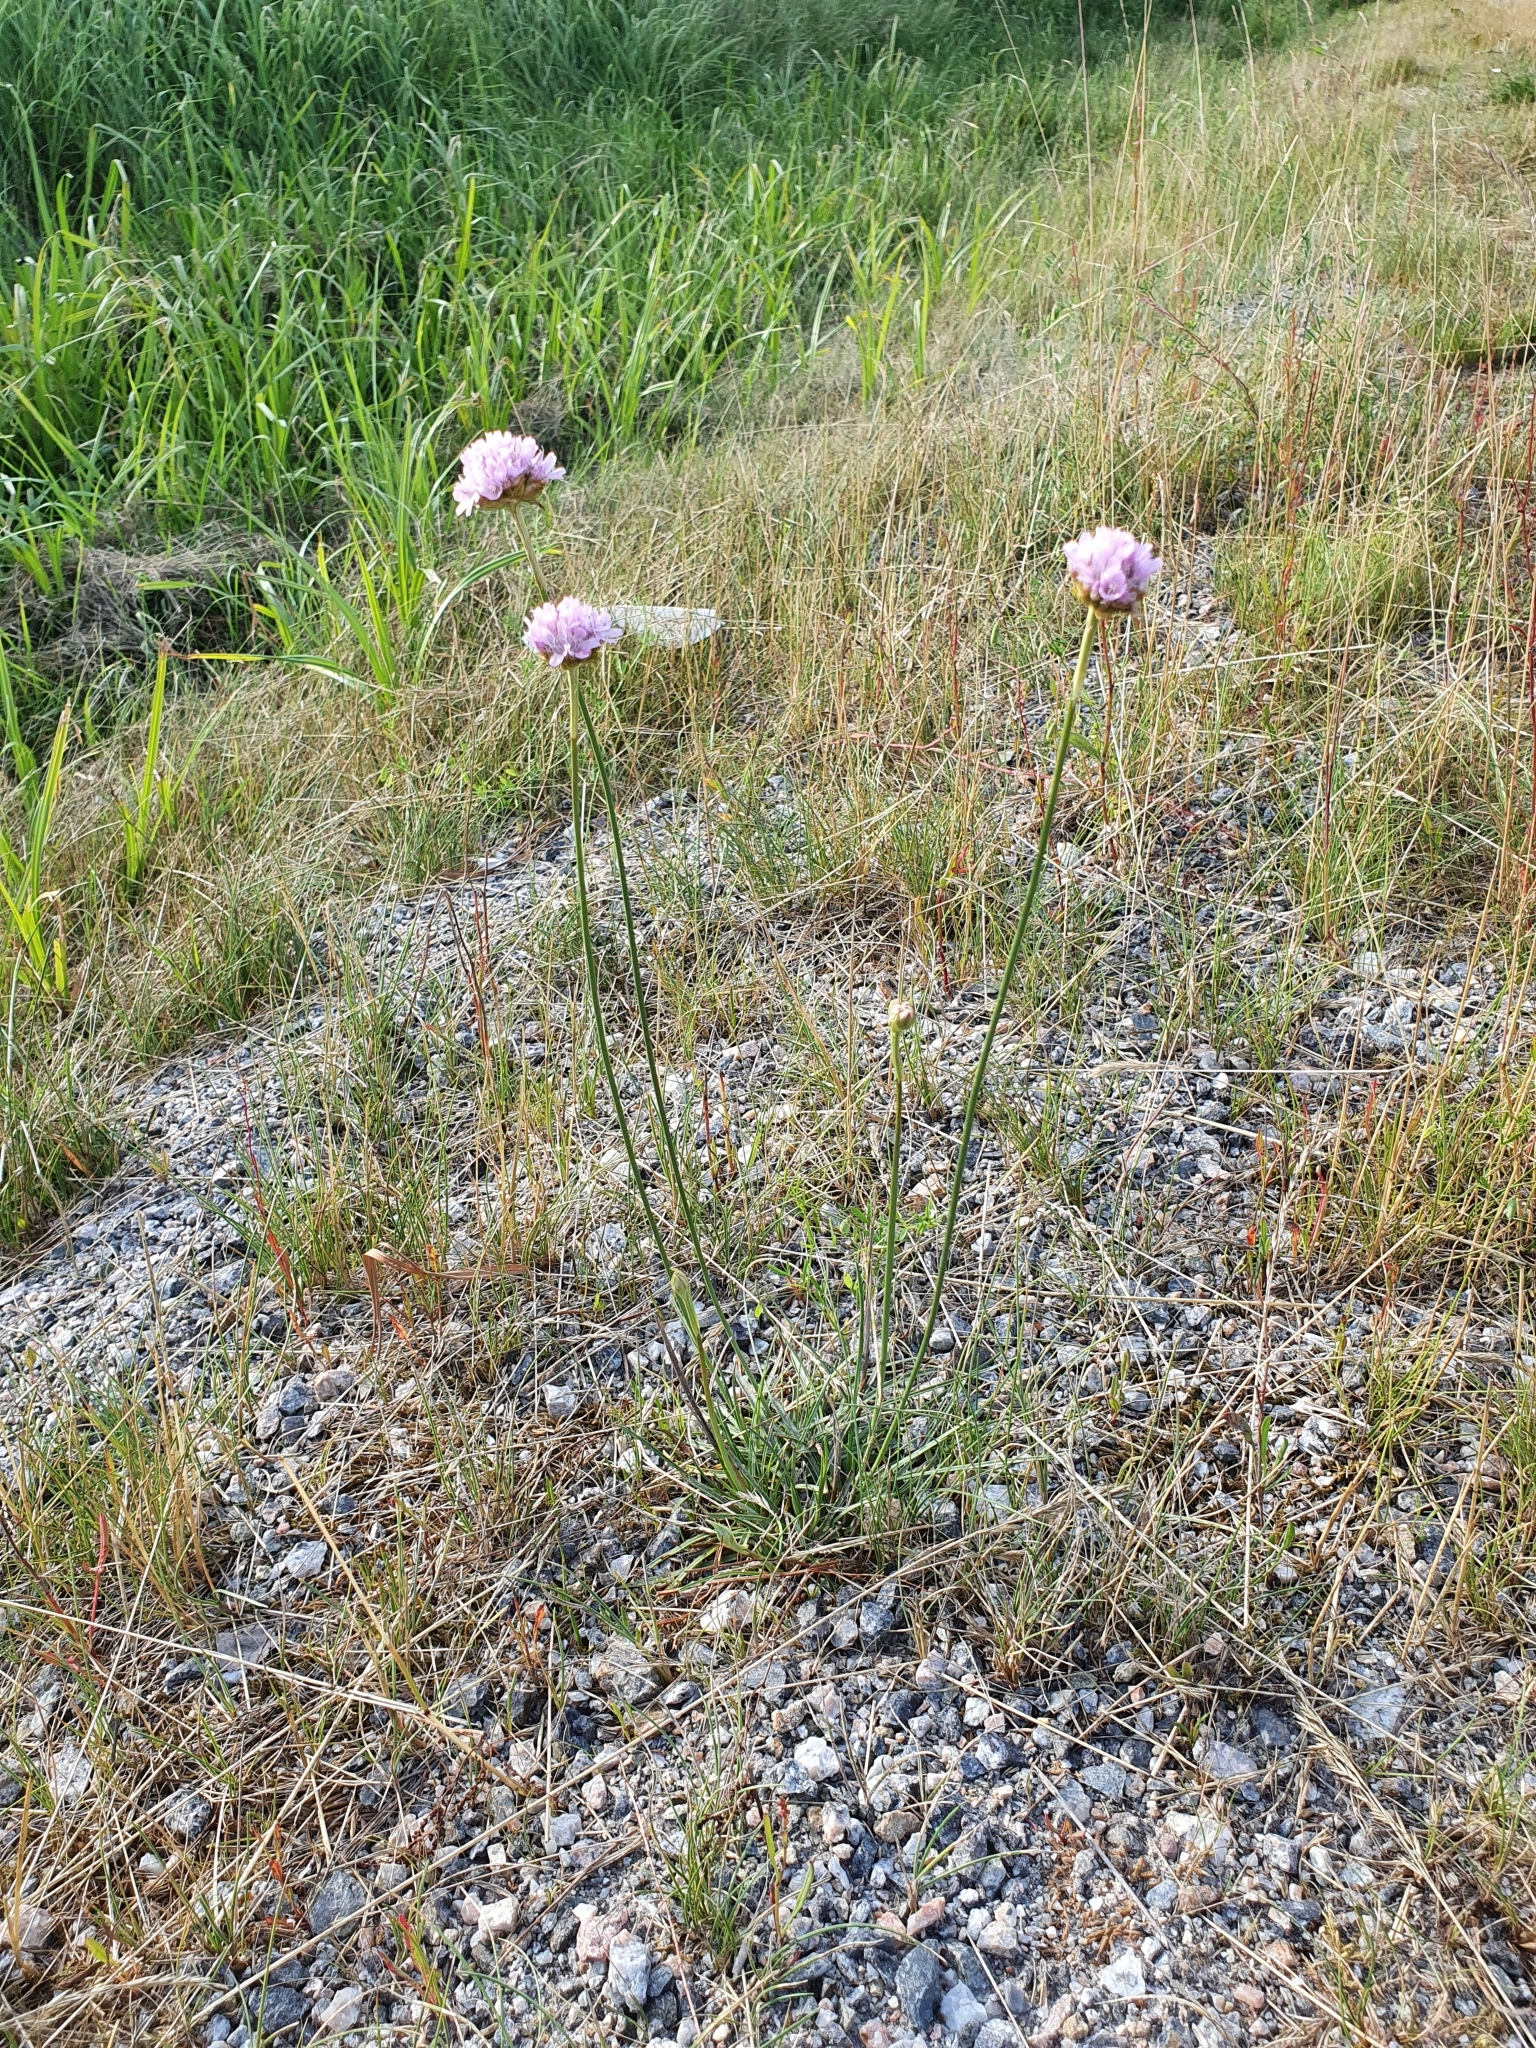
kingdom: Plantae
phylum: Tracheophyta
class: Magnoliopsida
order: Caryophyllales
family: Plumbaginaceae
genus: Armeria
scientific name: Armeria maritima
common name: Thrift
